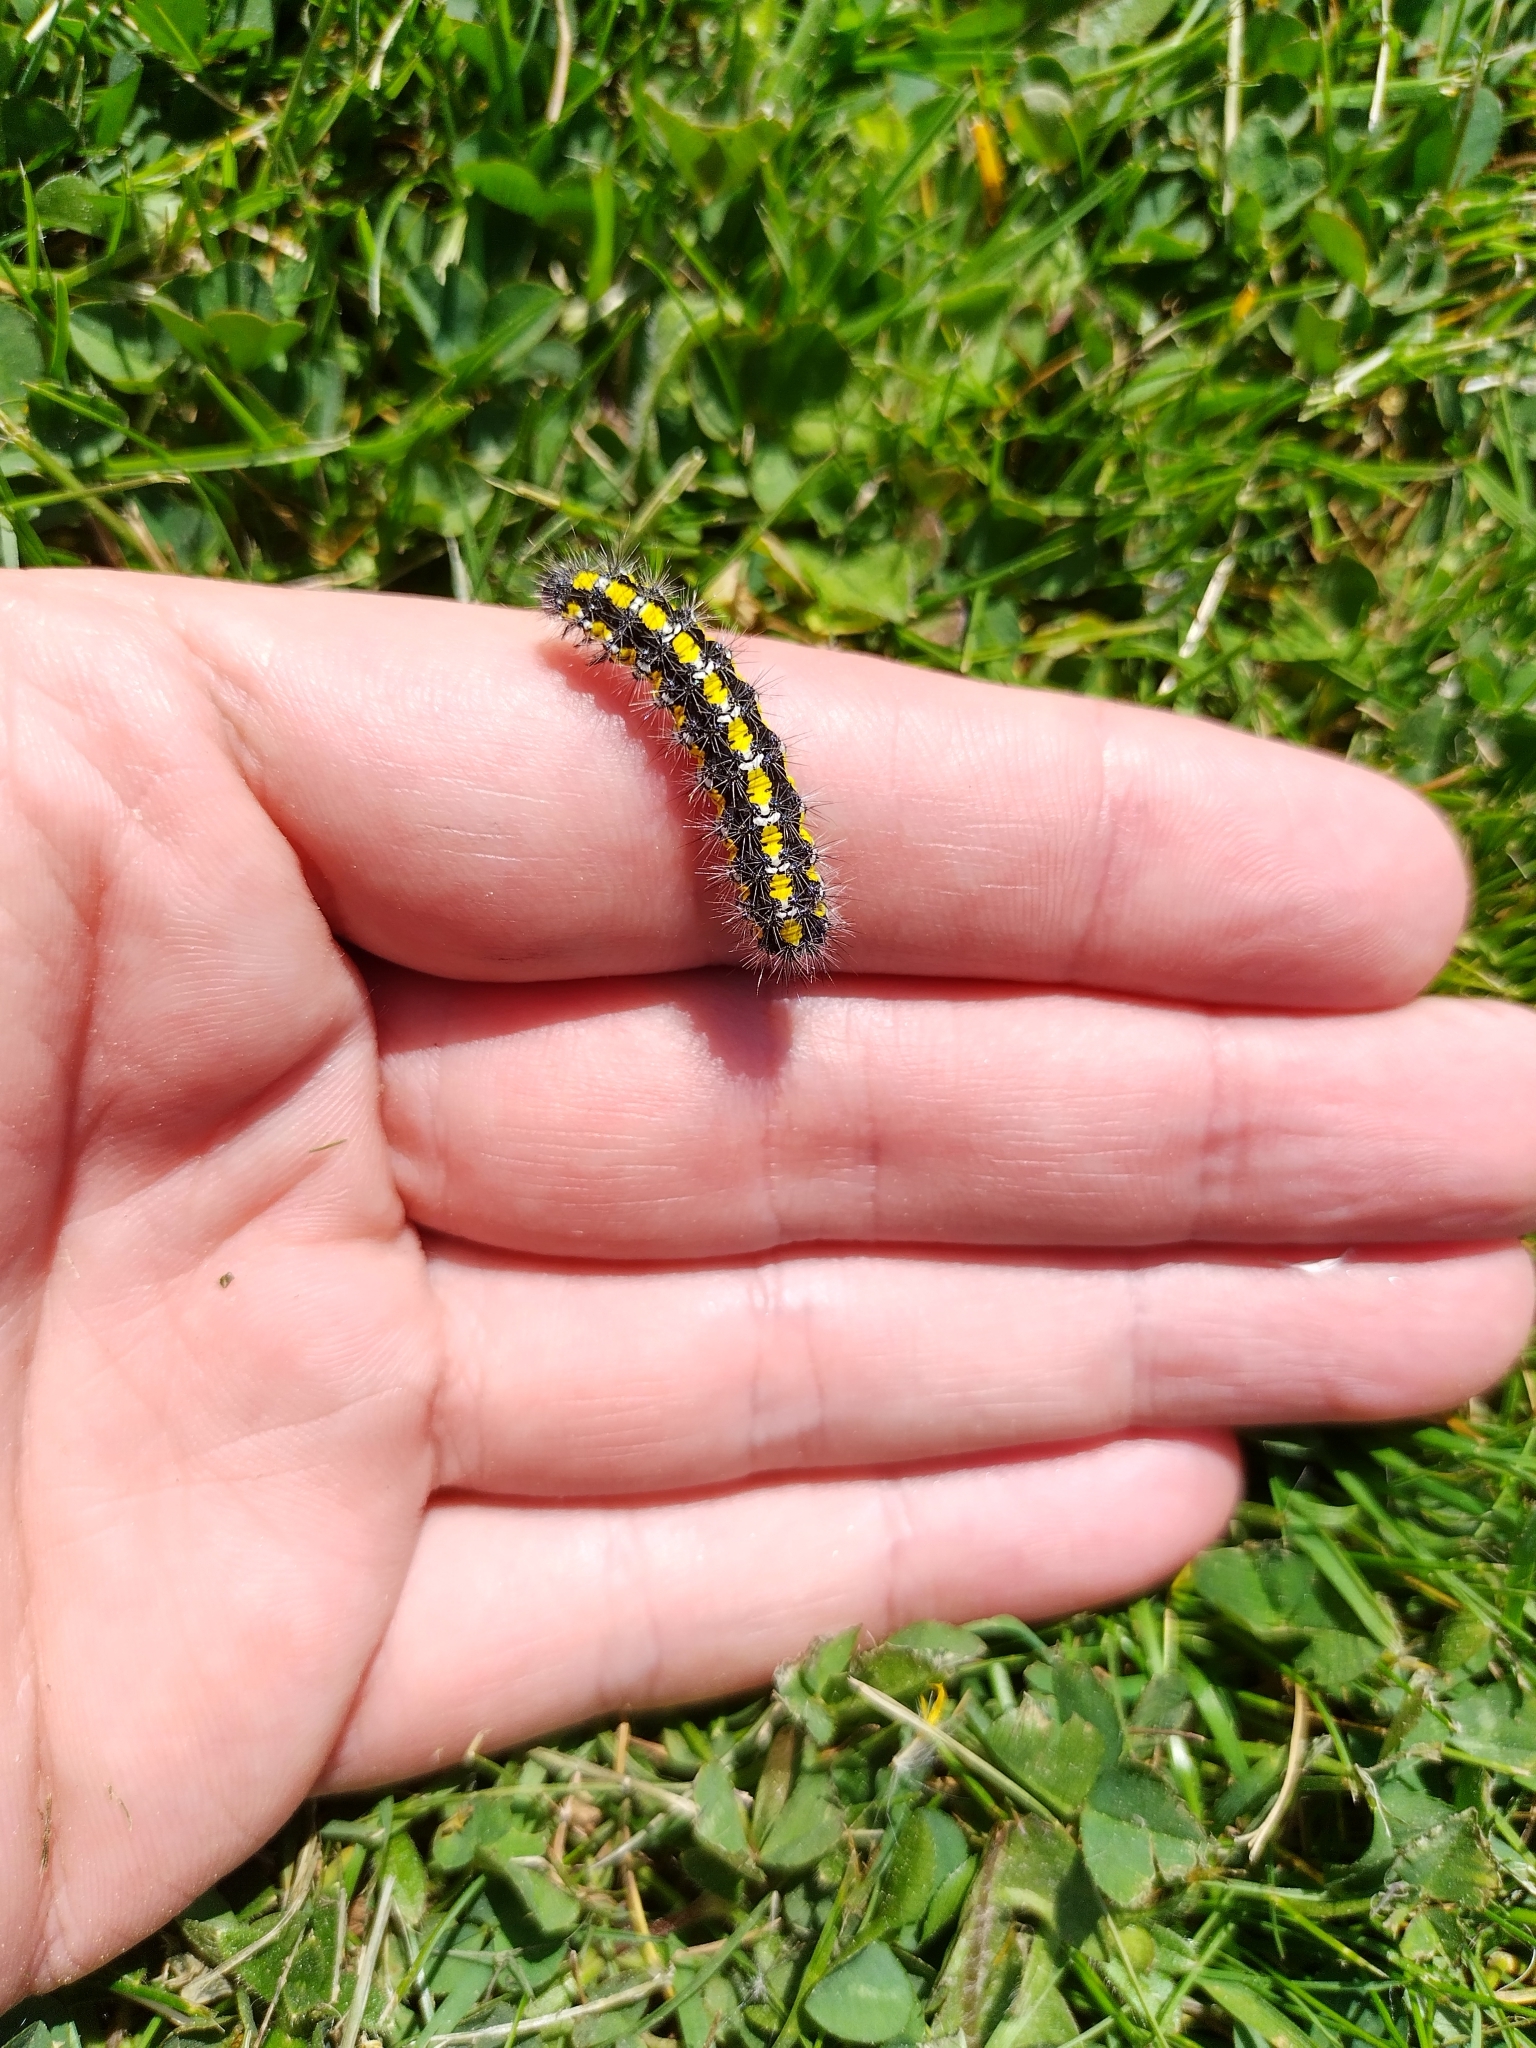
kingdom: Animalia
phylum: Arthropoda
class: Insecta
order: Lepidoptera
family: Erebidae
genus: Callimorpha
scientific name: Callimorpha dominula
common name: Scarlet tiger
